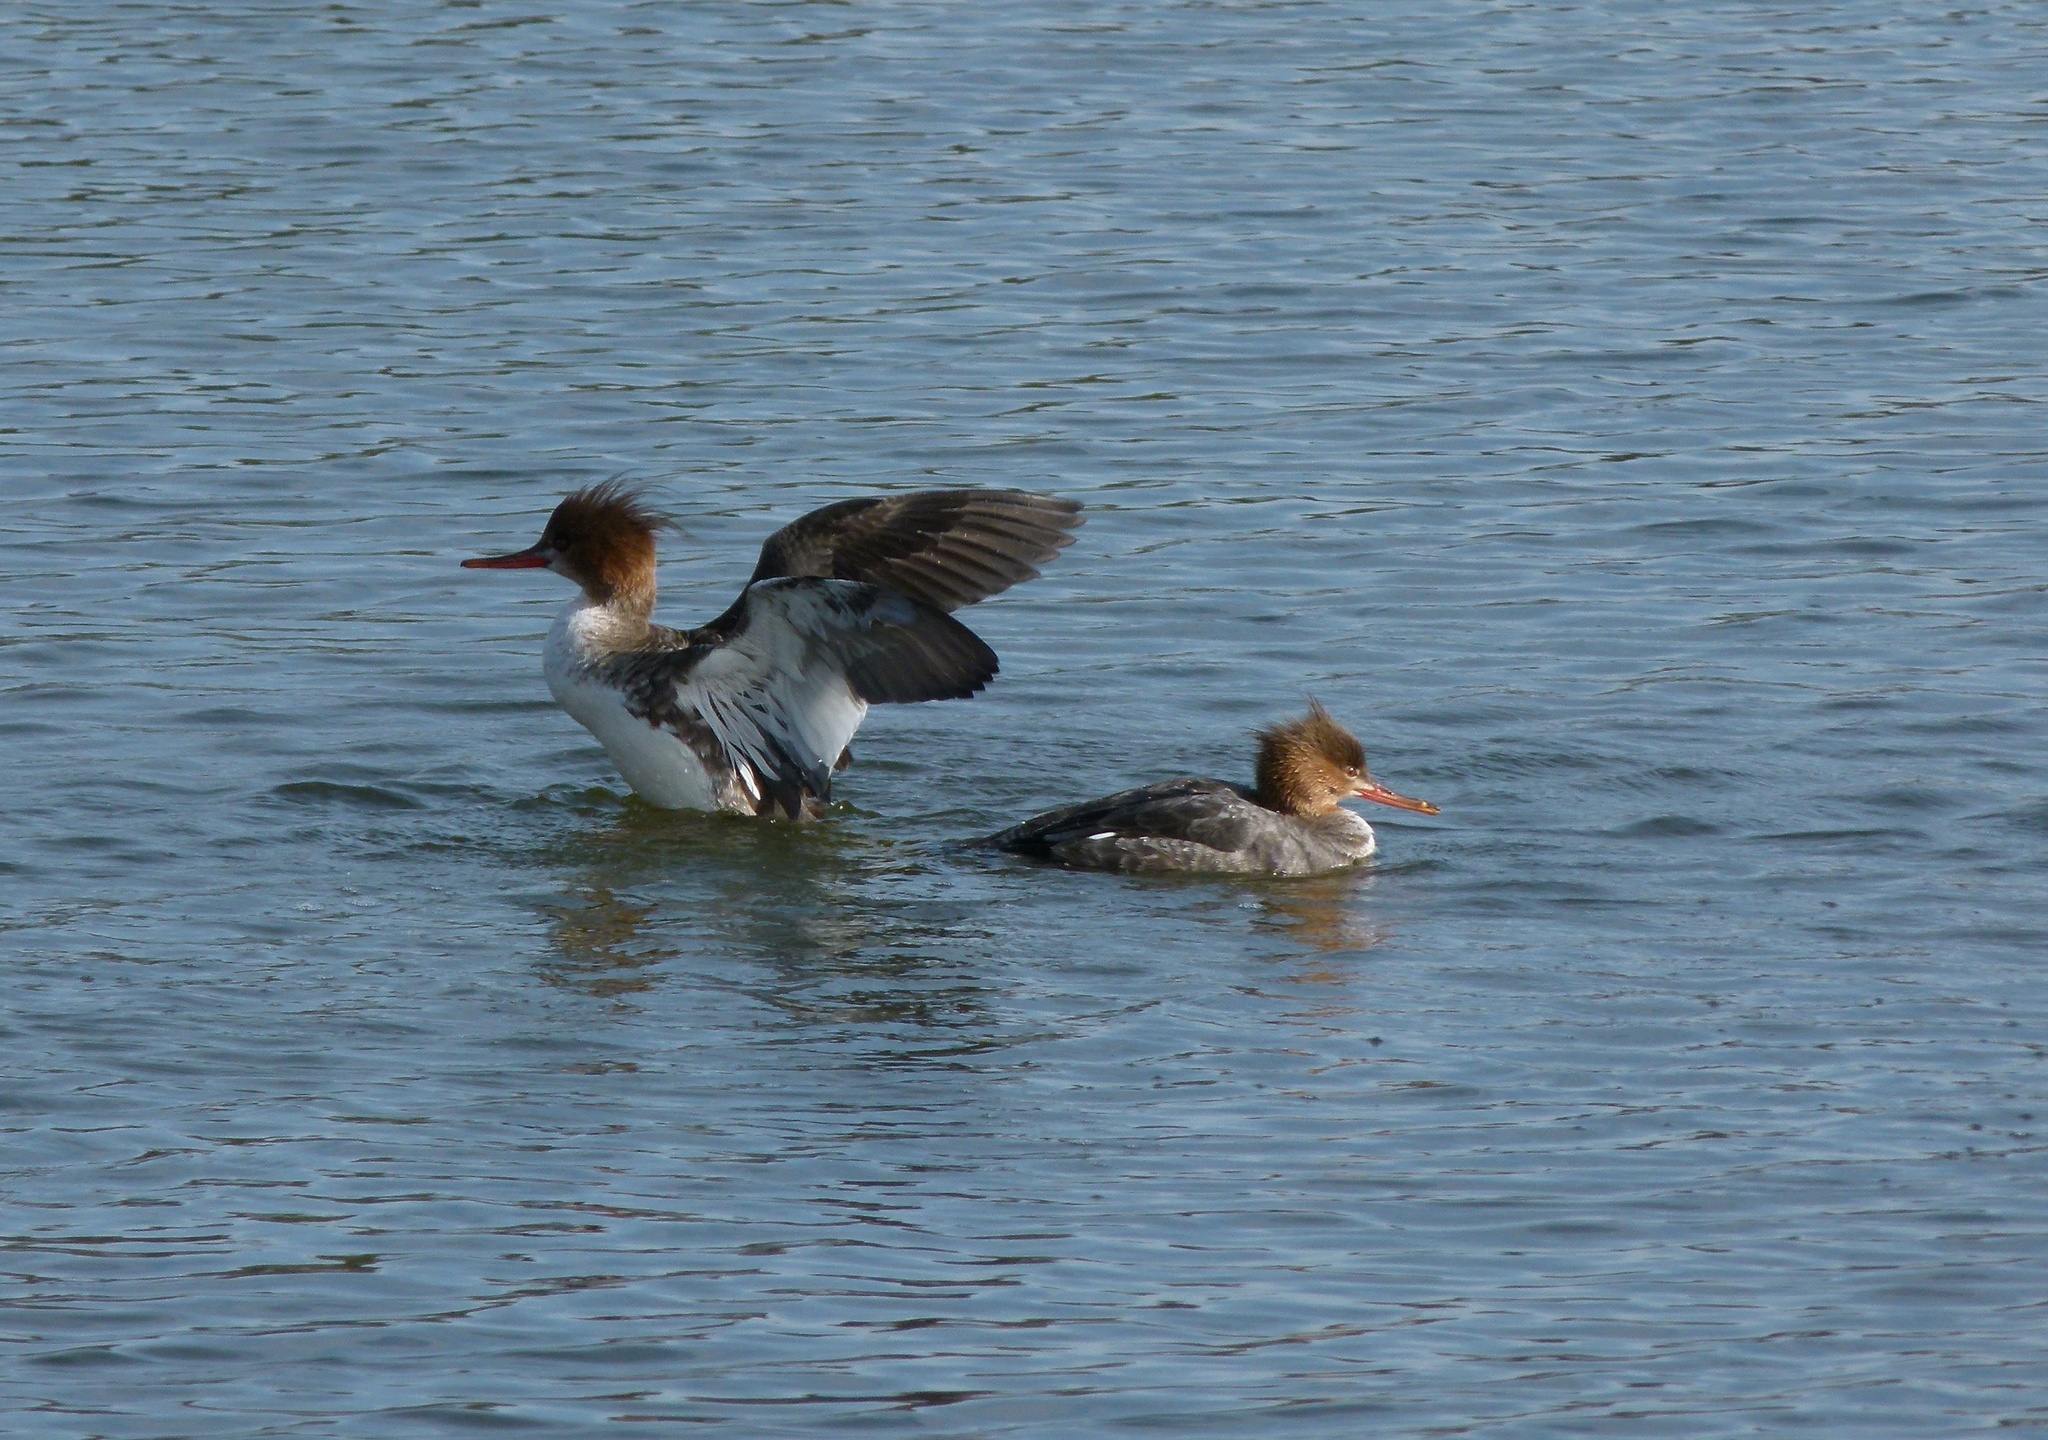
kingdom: Animalia
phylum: Chordata
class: Aves
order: Anseriformes
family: Anatidae
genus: Mergus
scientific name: Mergus serrator
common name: Red-breasted merganser
